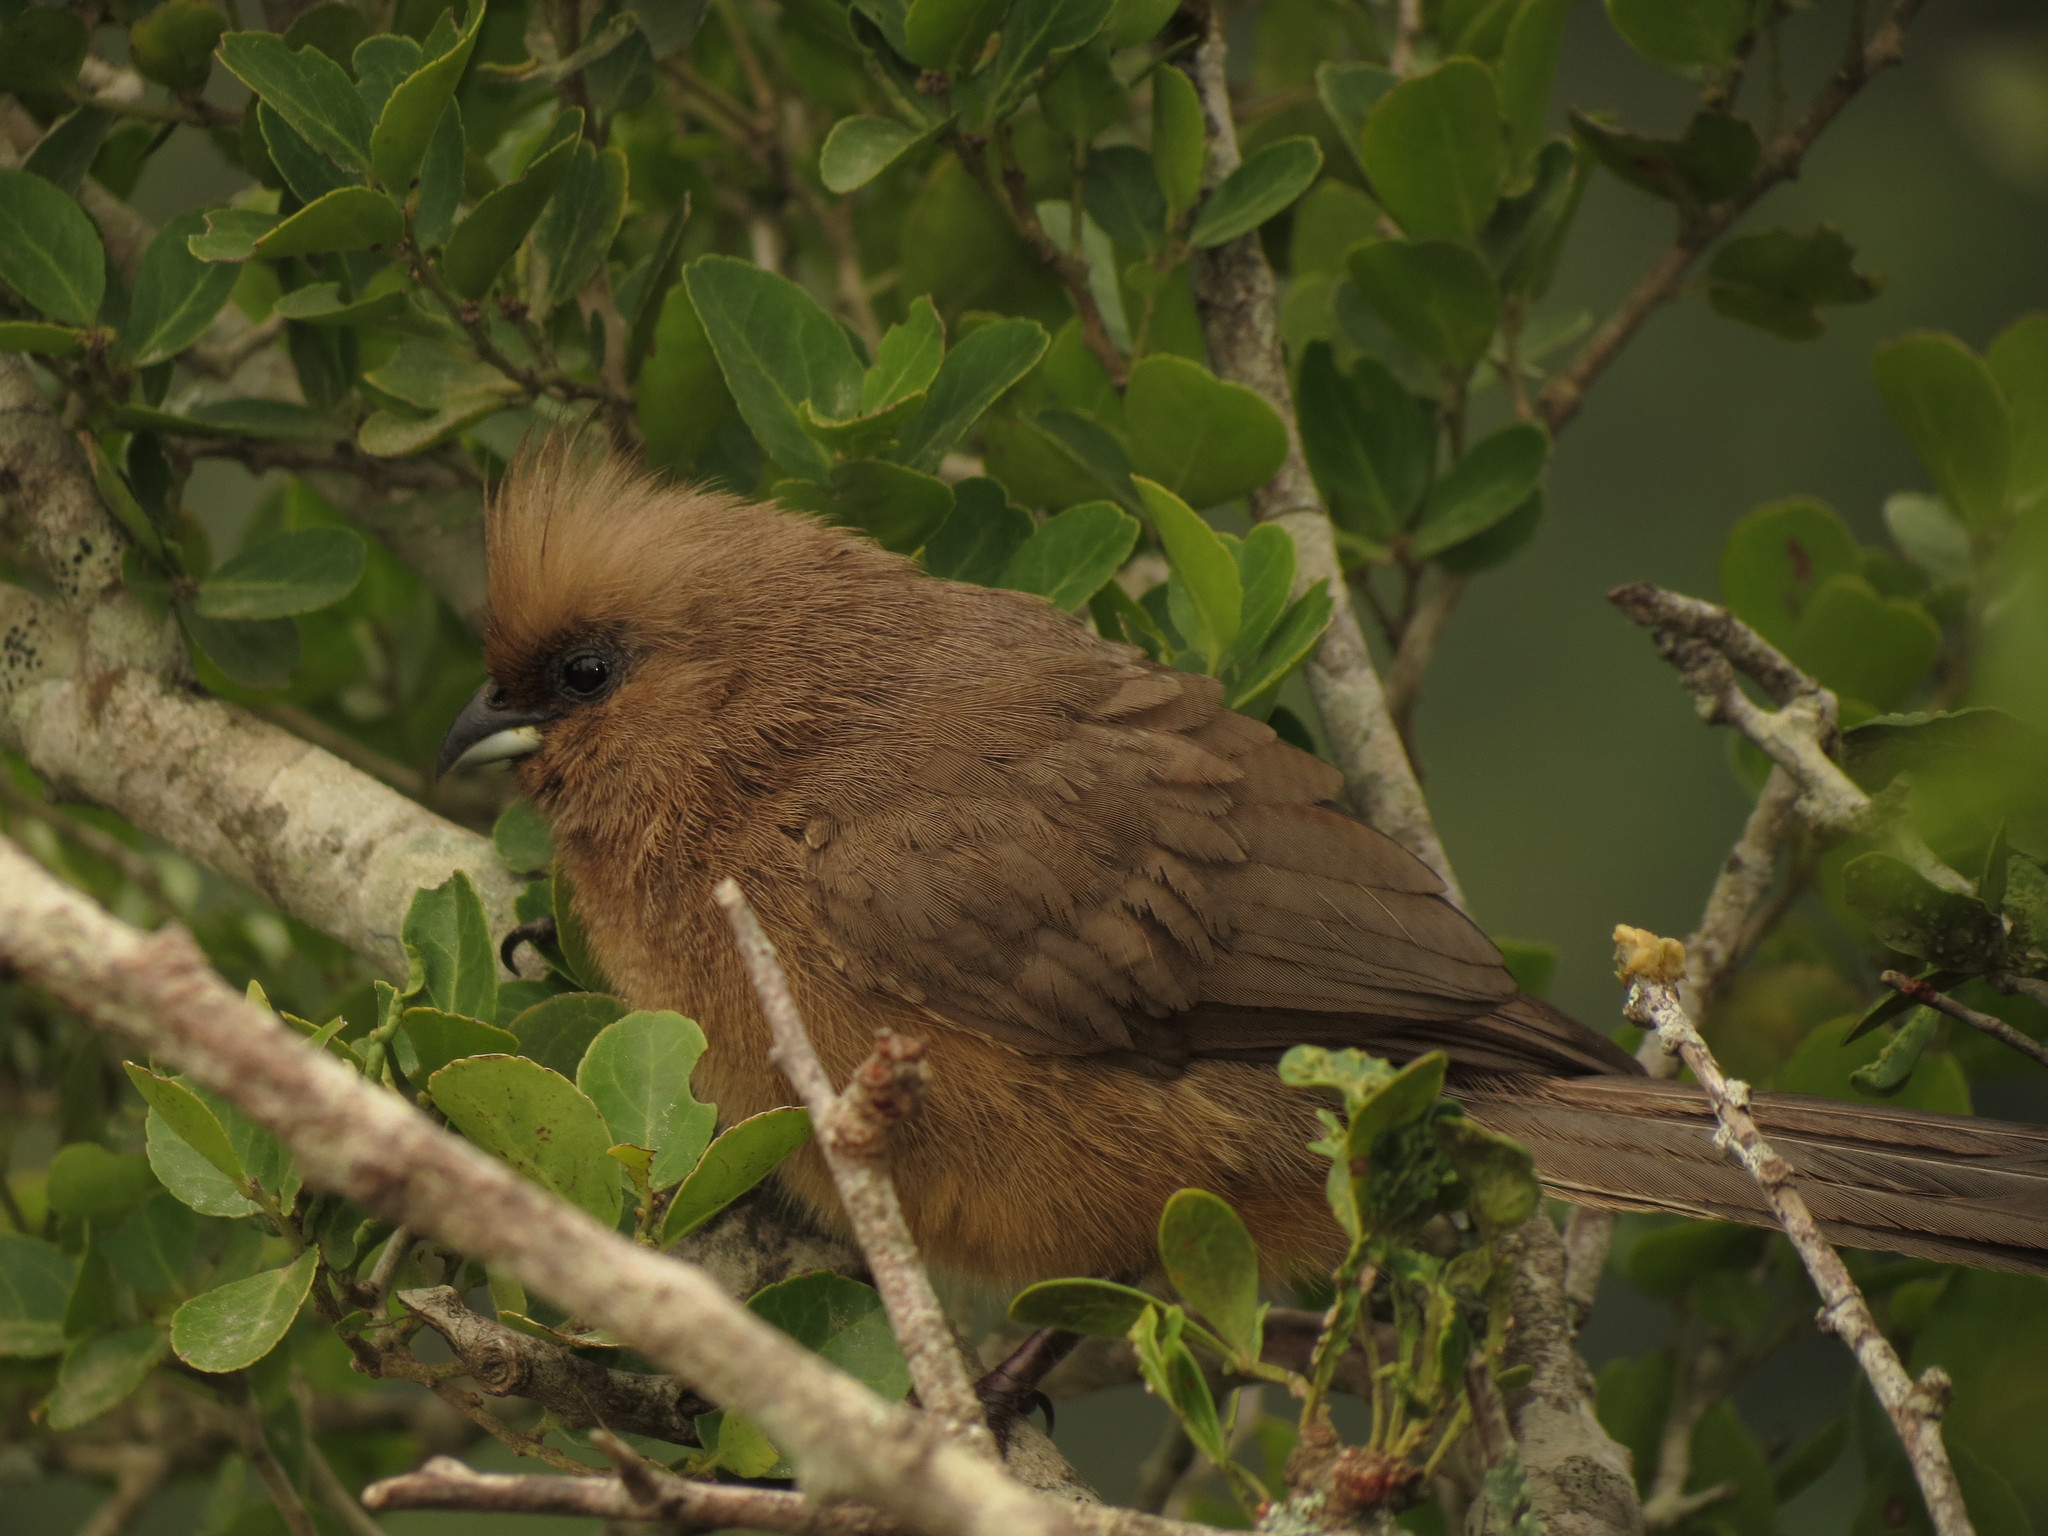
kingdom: Animalia
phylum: Chordata
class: Aves
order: Coliiformes
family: Coliidae
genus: Colius
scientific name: Colius striatus
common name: Speckled mousebird
